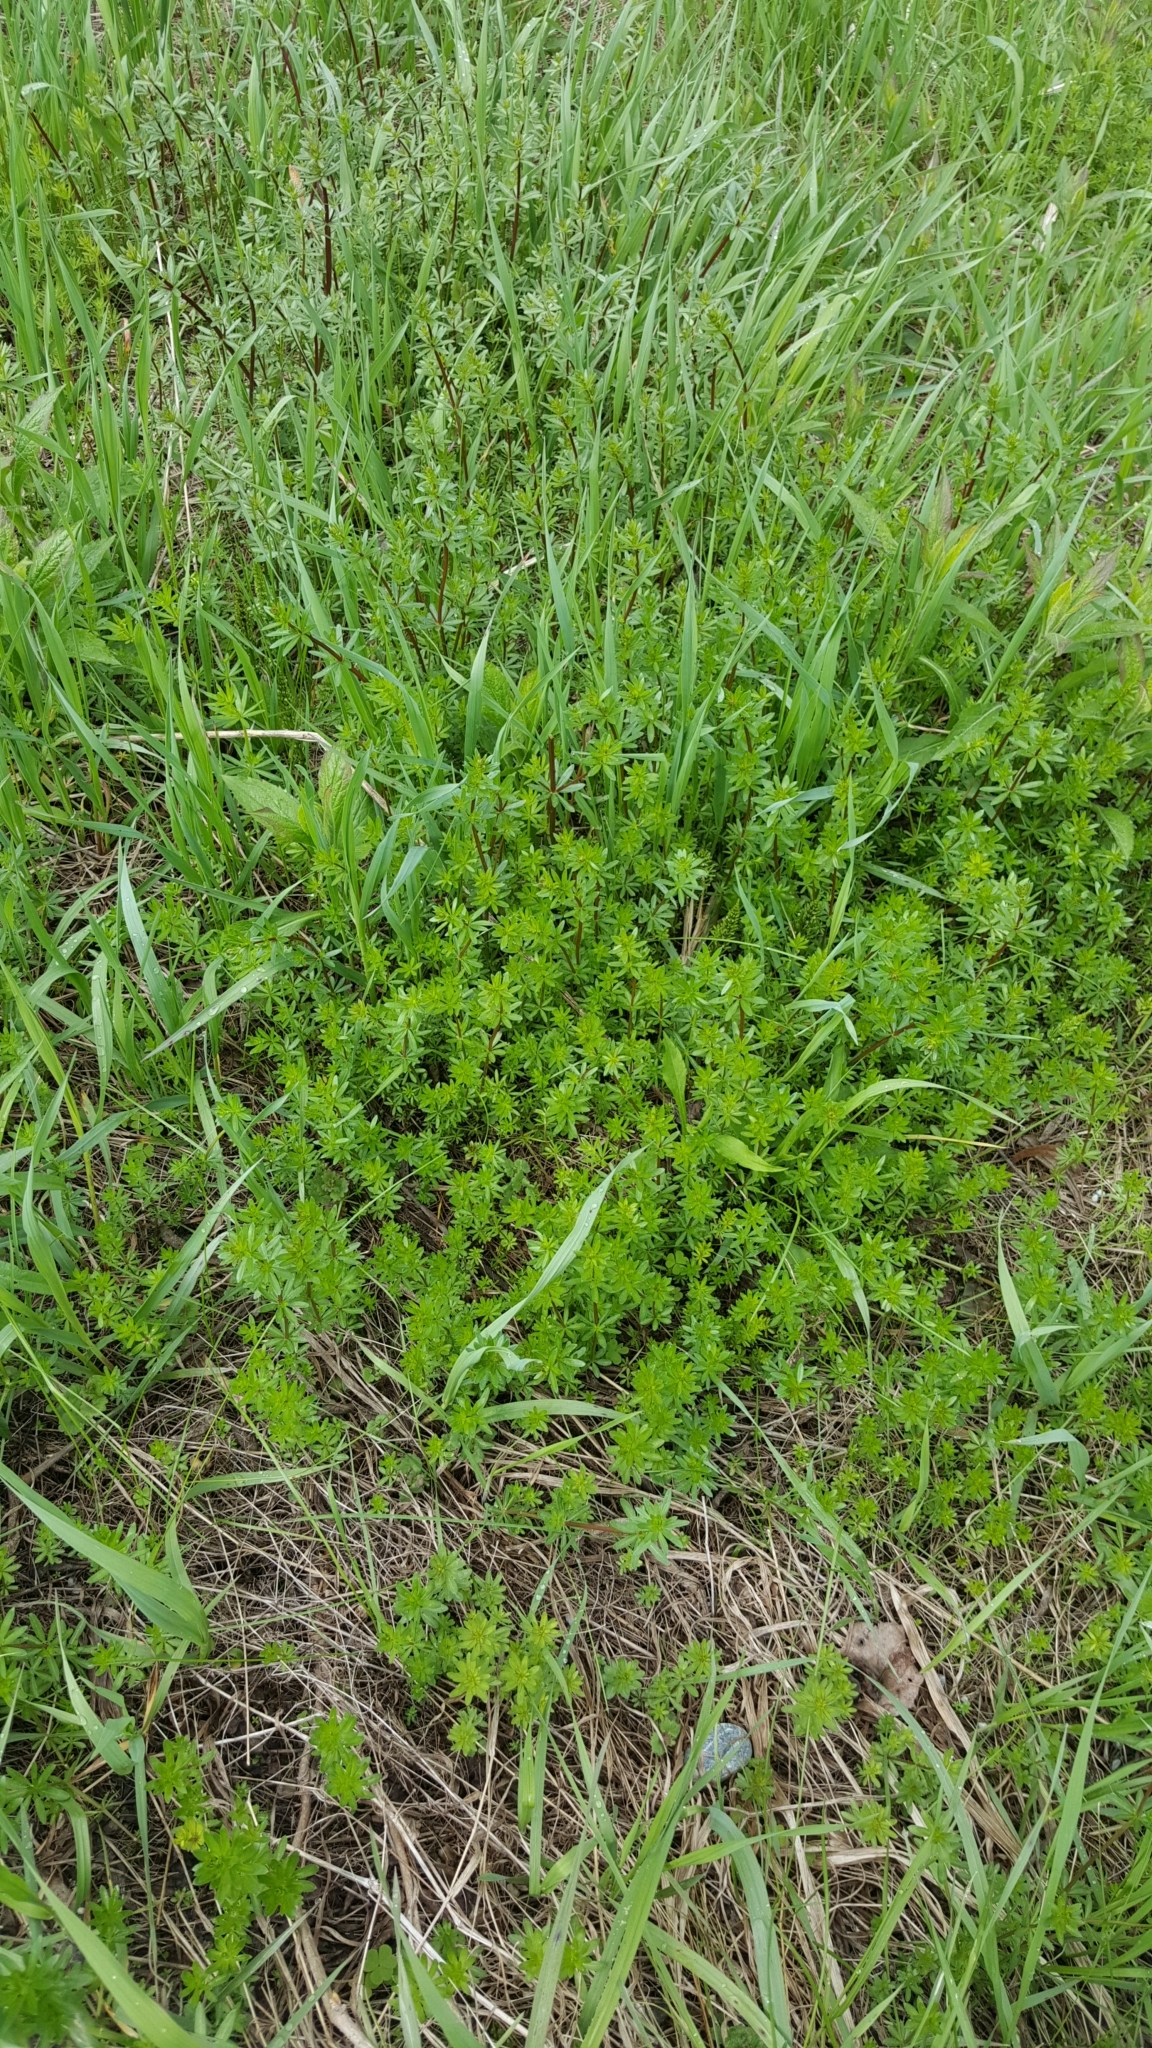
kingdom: Plantae
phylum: Tracheophyta
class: Magnoliopsida
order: Gentianales
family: Rubiaceae
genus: Galium
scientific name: Galium mollugo
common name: Hedge bedstraw
